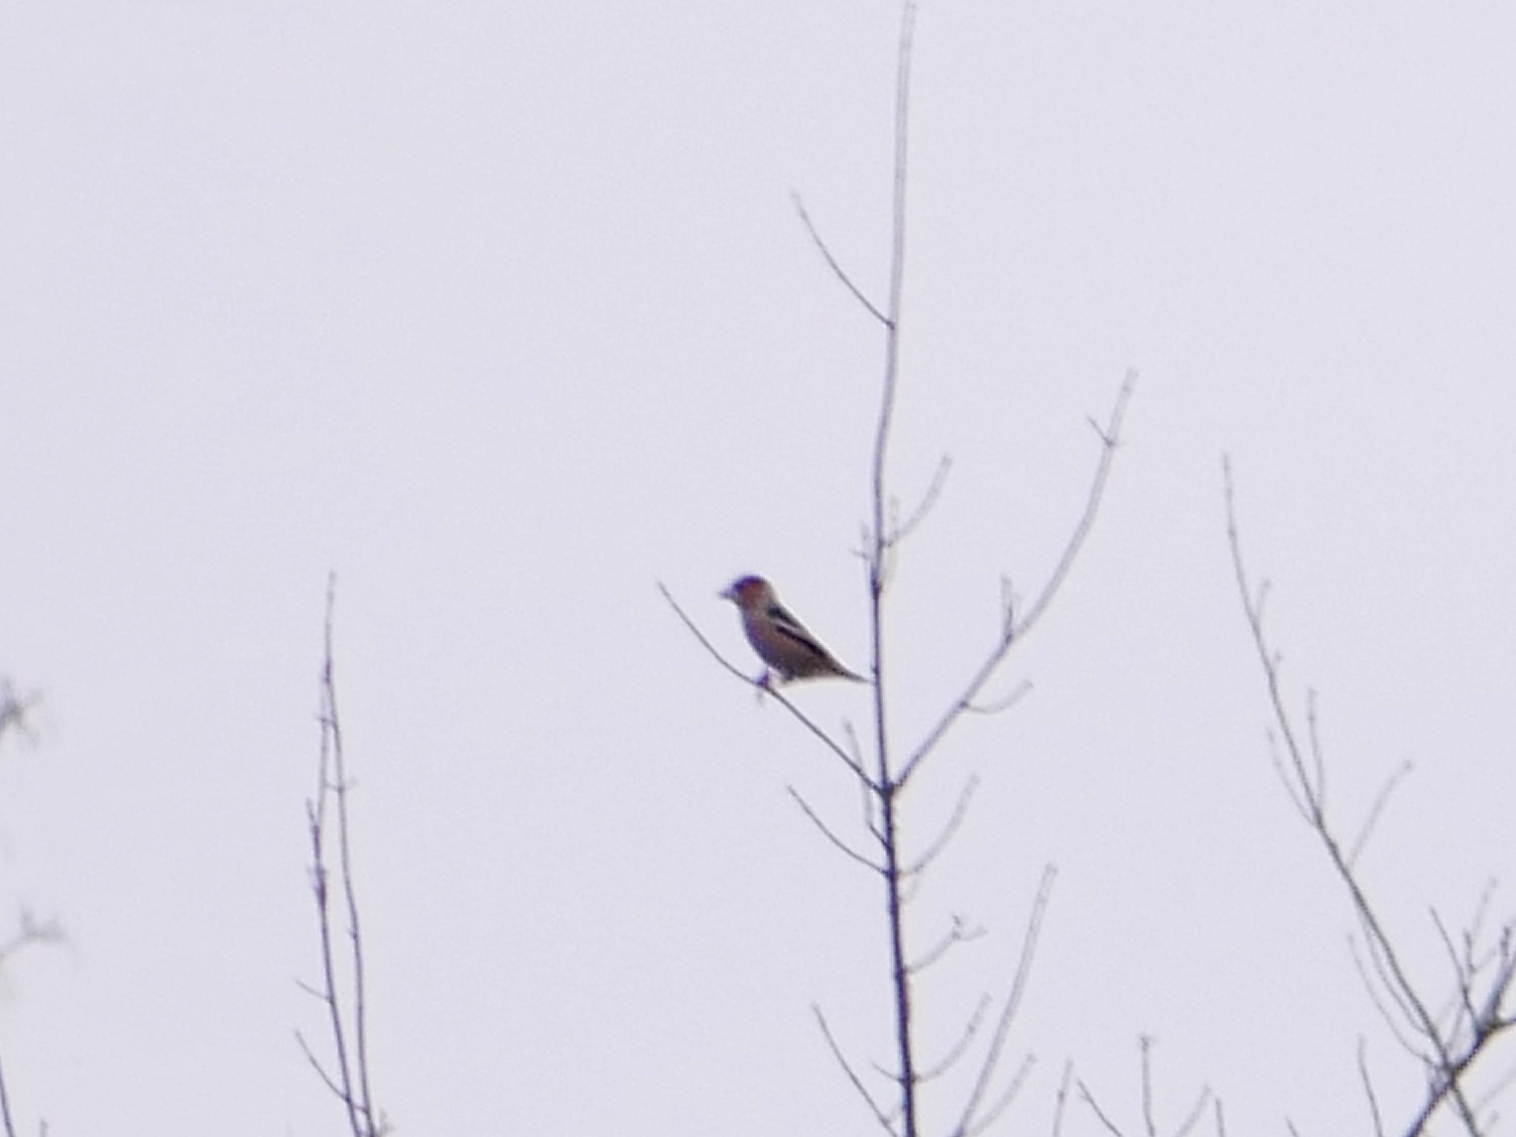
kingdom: Animalia
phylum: Chordata
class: Aves
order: Passeriformes
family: Fringillidae
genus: Coccothraustes
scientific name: Coccothraustes coccothraustes
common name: Hawfinch
